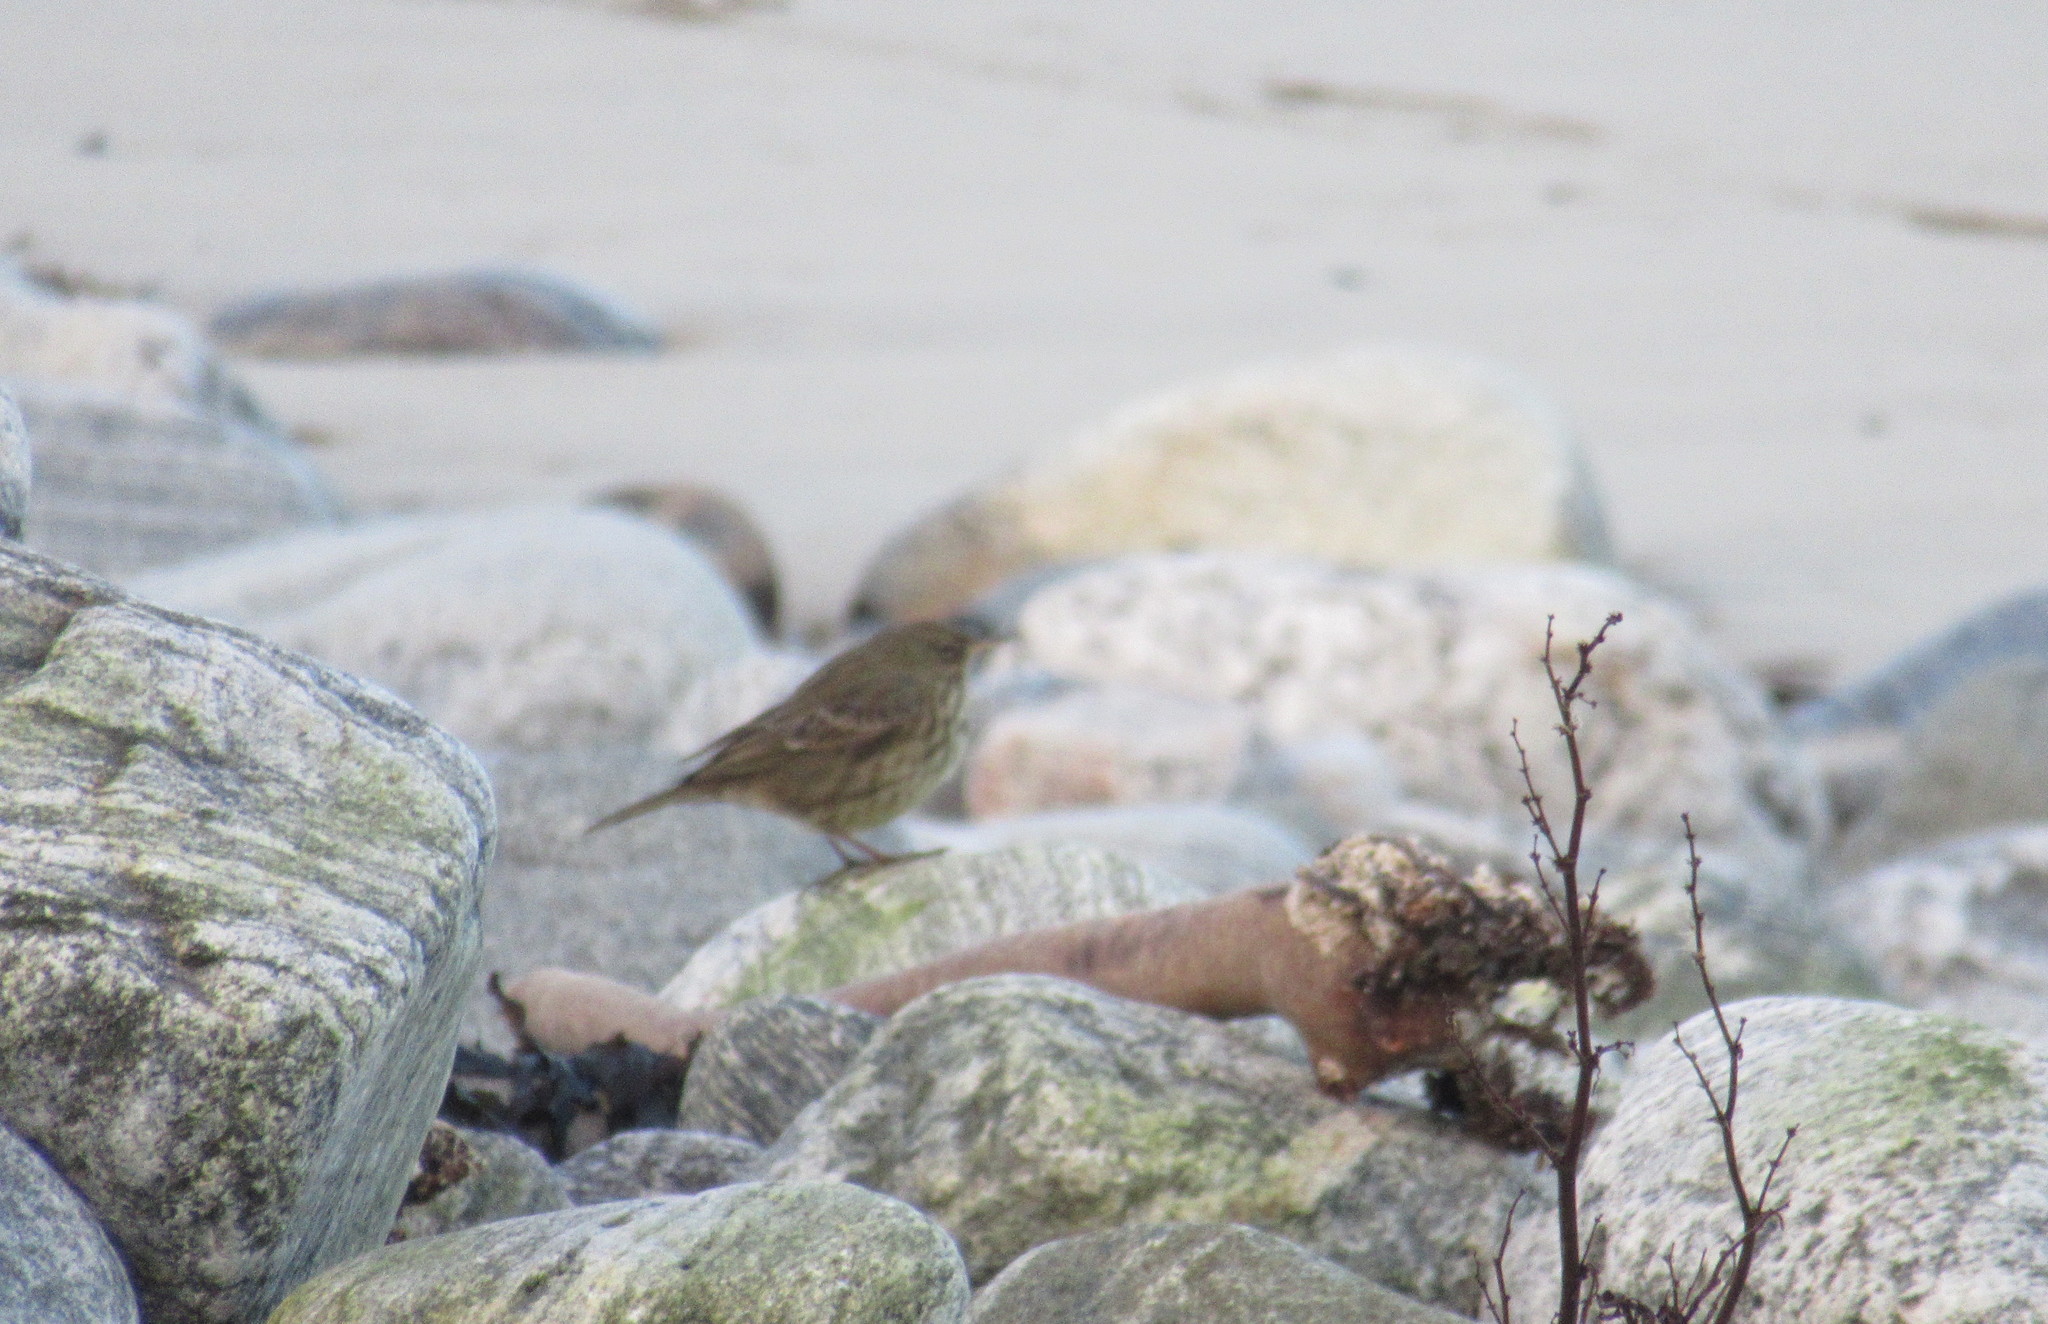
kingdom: Animalia
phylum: Chordata
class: Aves
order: Passeriformes
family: Motacillidae
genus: Anthus
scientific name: Anthus petrosus
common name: Eurasian rock pipit
